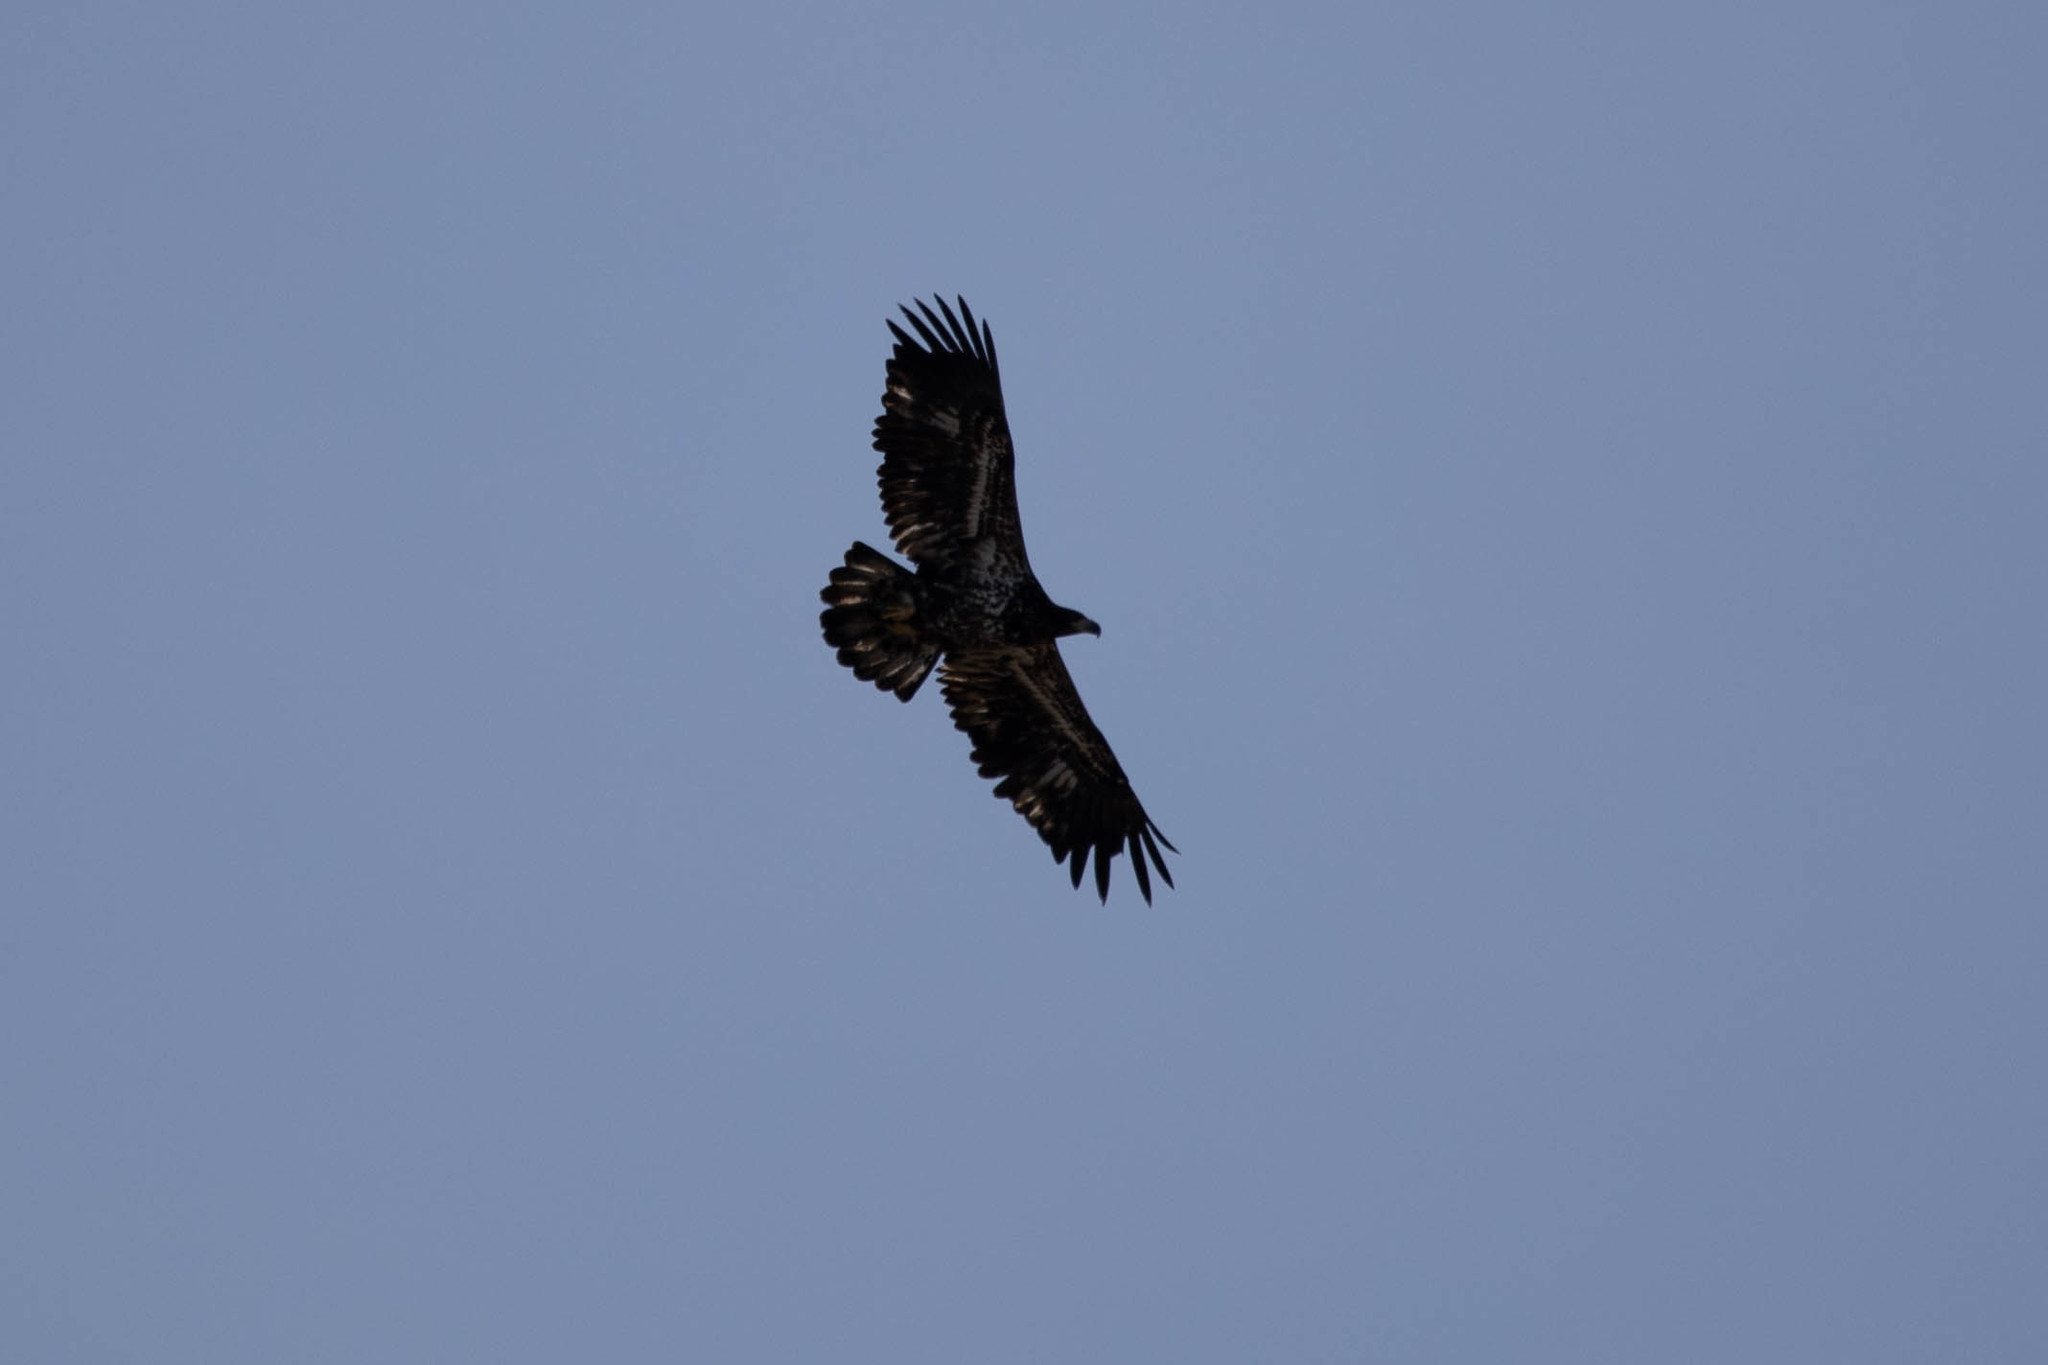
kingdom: Animalia
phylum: Chordata
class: Aves
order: Accipitriformes
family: Accipitridae
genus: Haliaeetus
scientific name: Haliaeetus leucocephalus
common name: Bald eagle
